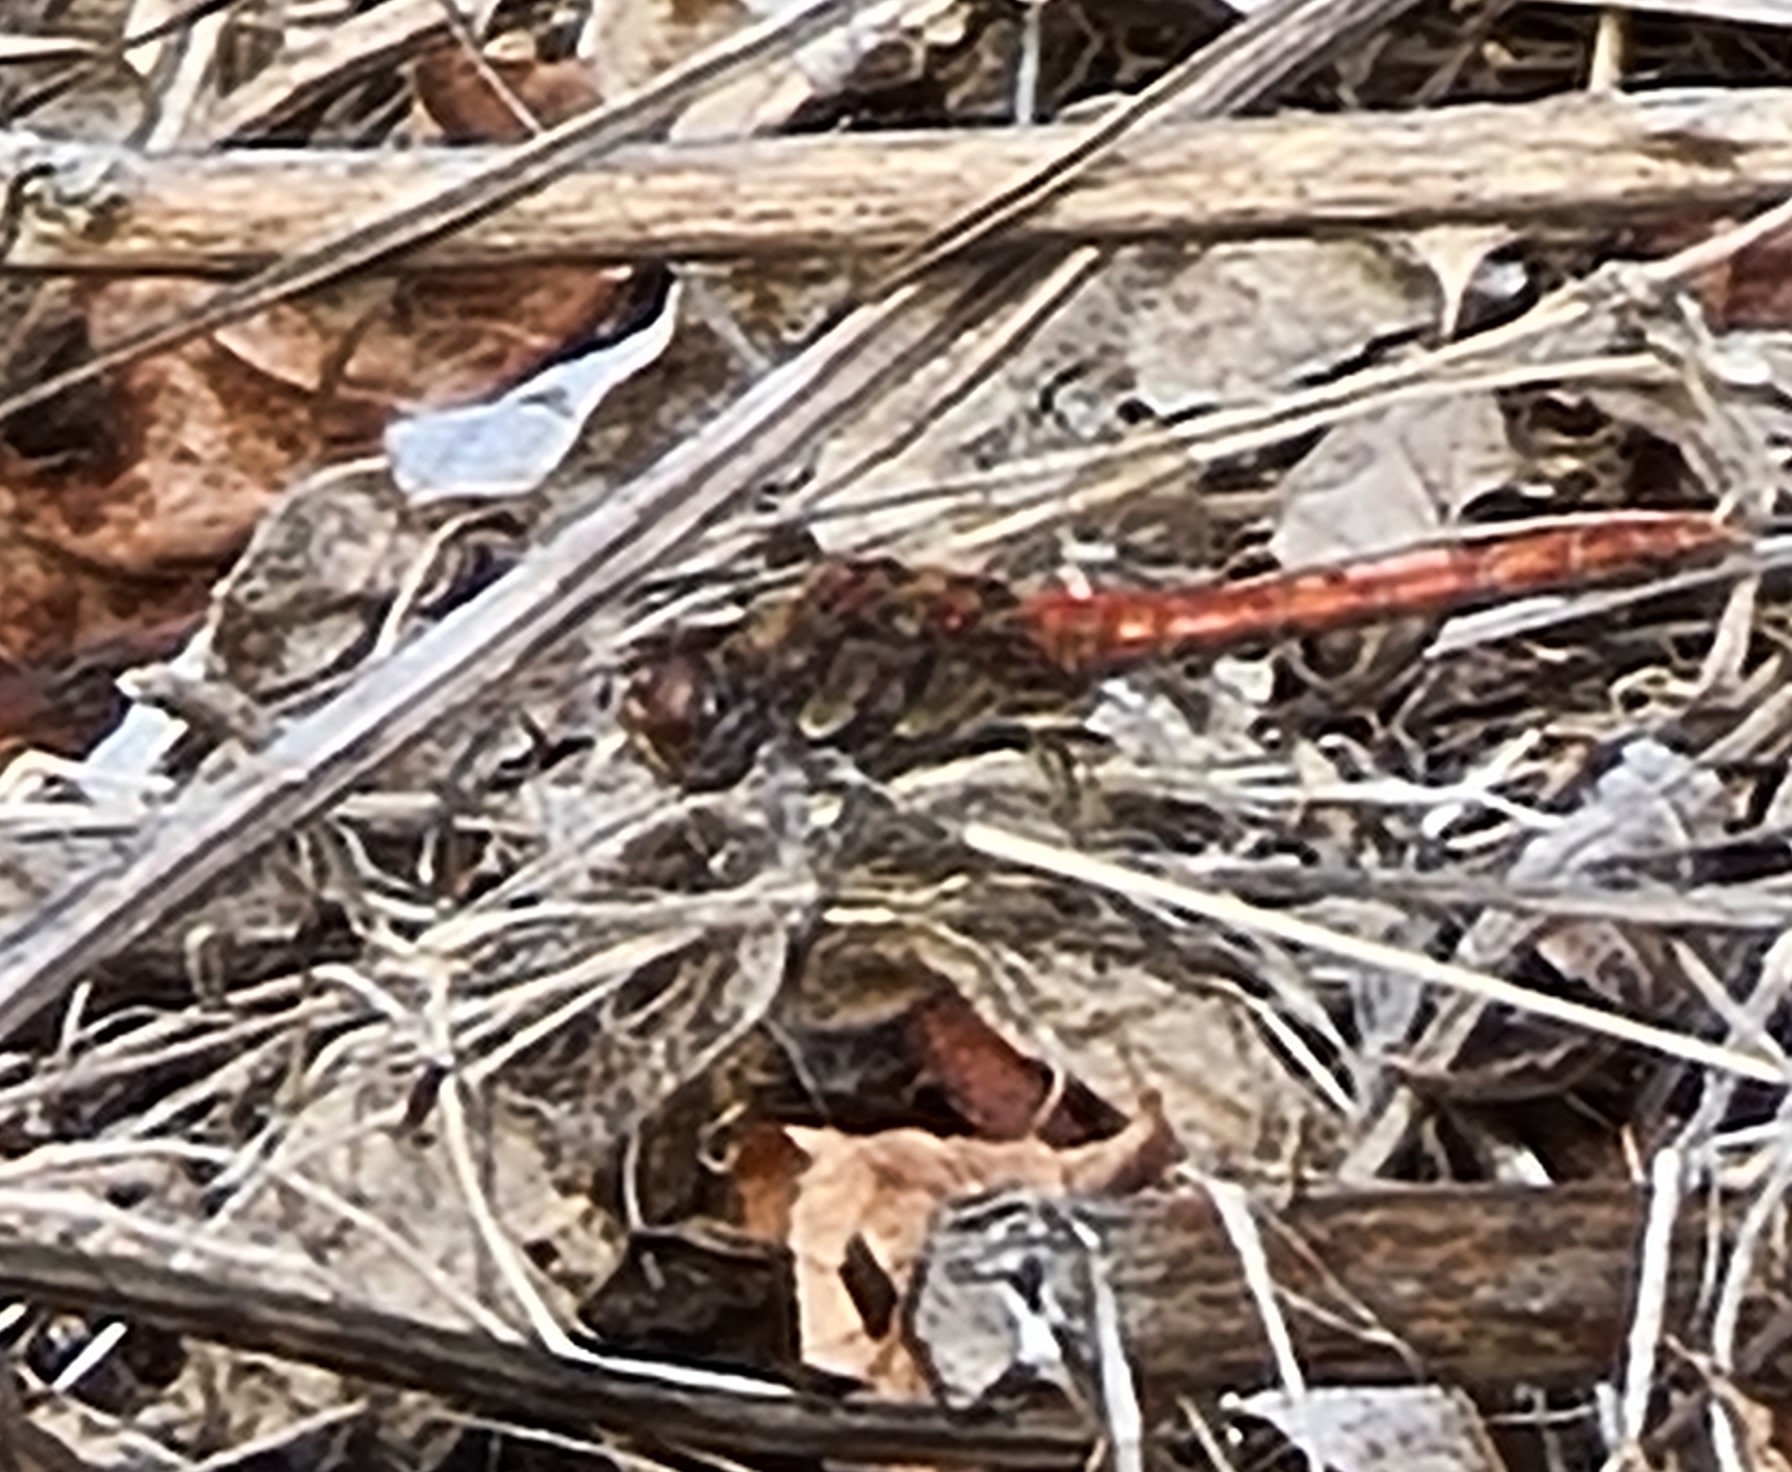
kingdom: Animalia
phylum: Arthropoda
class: Insecta
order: Odonata
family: Libellulidae
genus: Sympetrum
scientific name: Sympetrum striolatum
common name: Common darter
